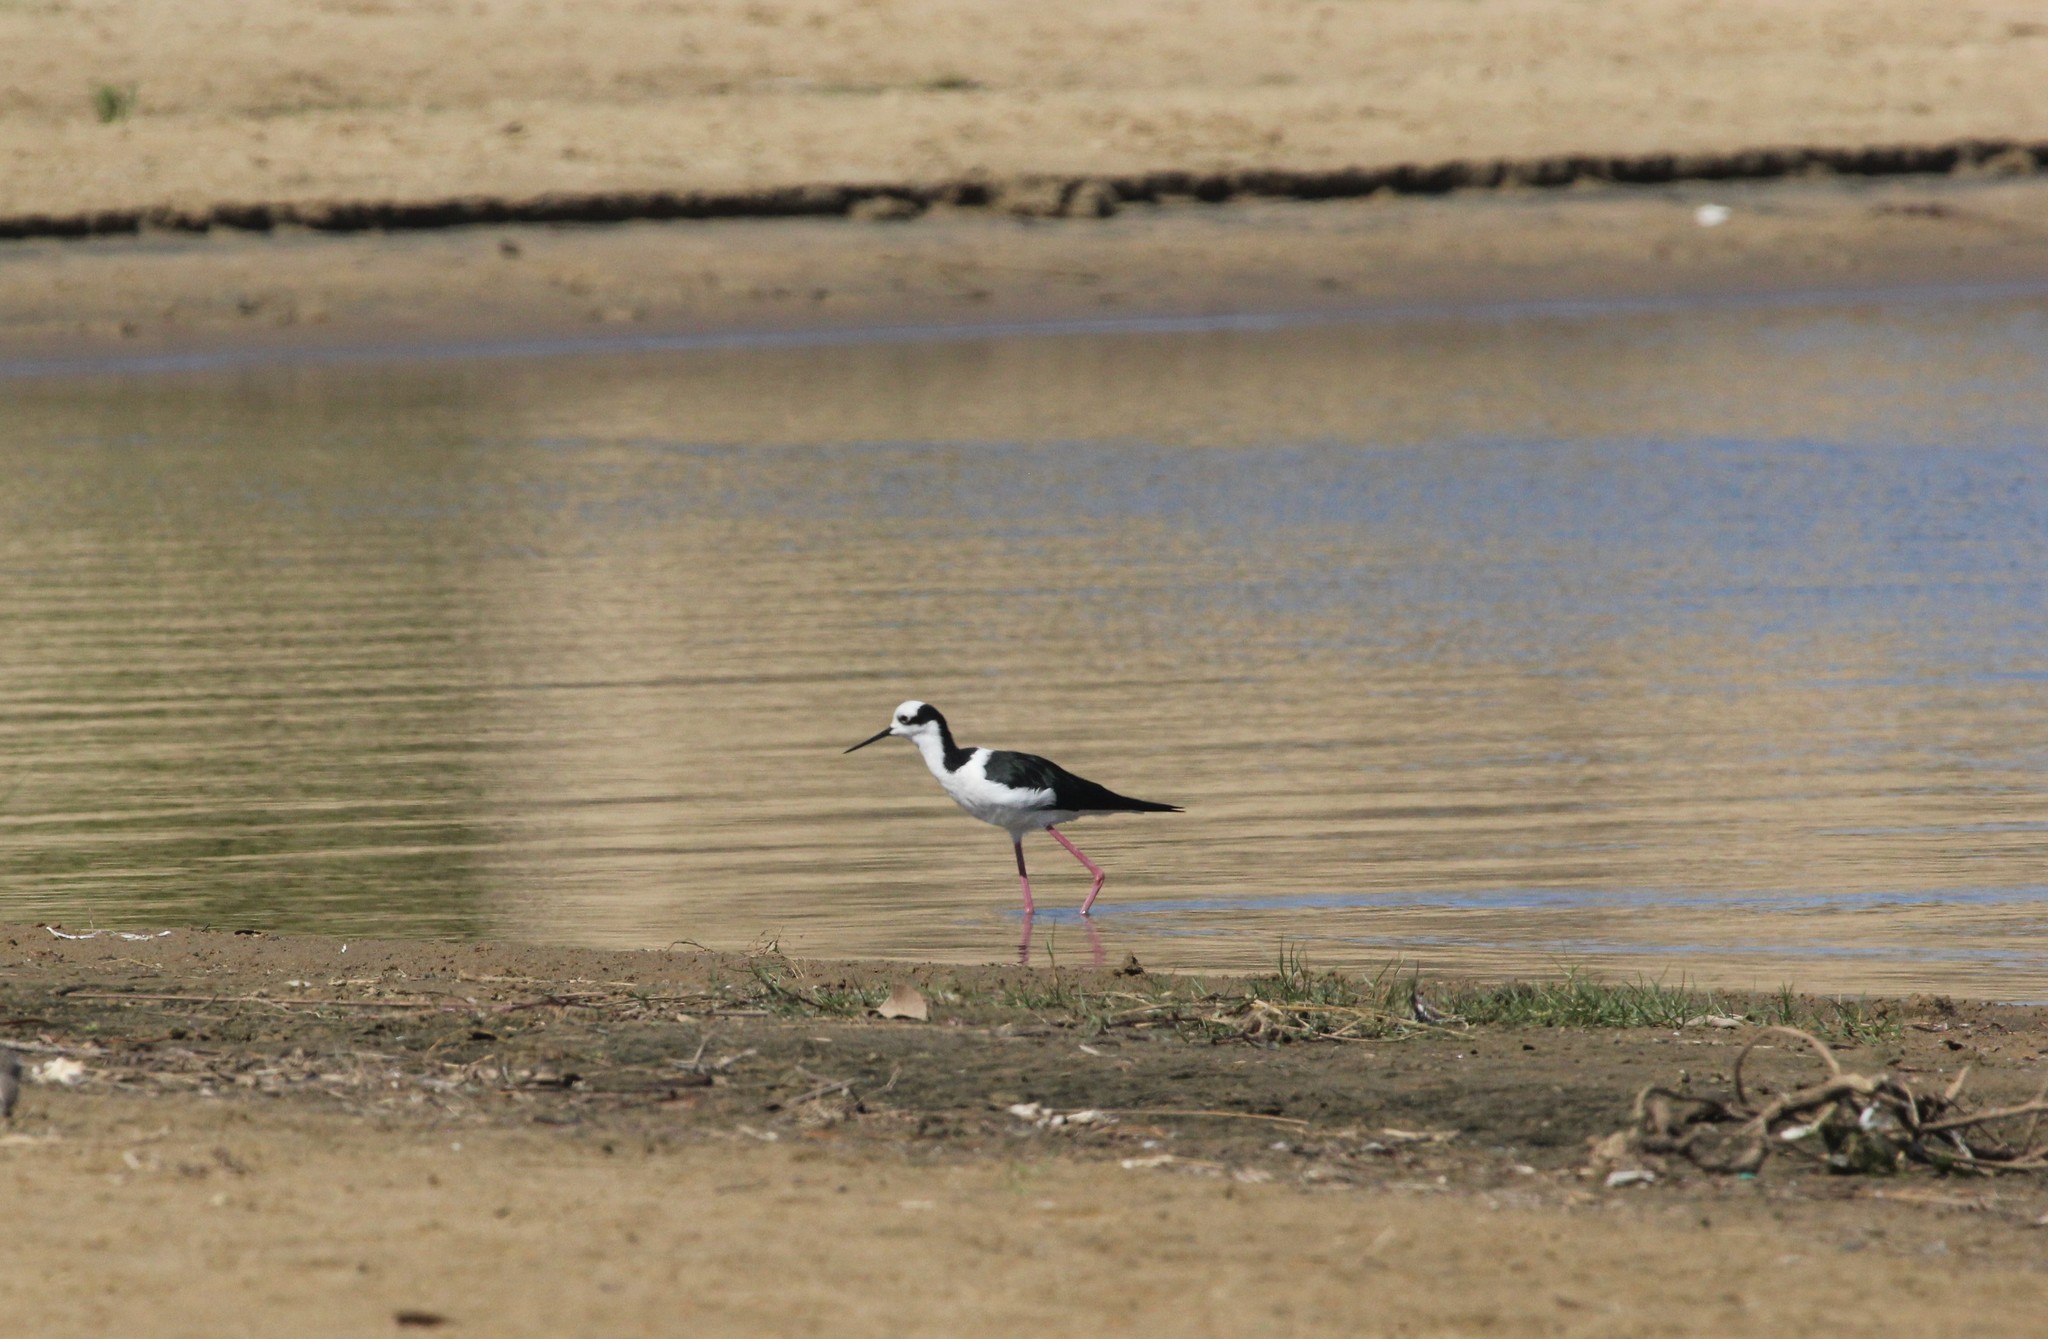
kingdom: Animalia
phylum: Chordata
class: Aves
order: Charadriiformes
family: Recurvirostridae
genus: Himantopus
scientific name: Himantopus mexicanus
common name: Black-necked stilt
